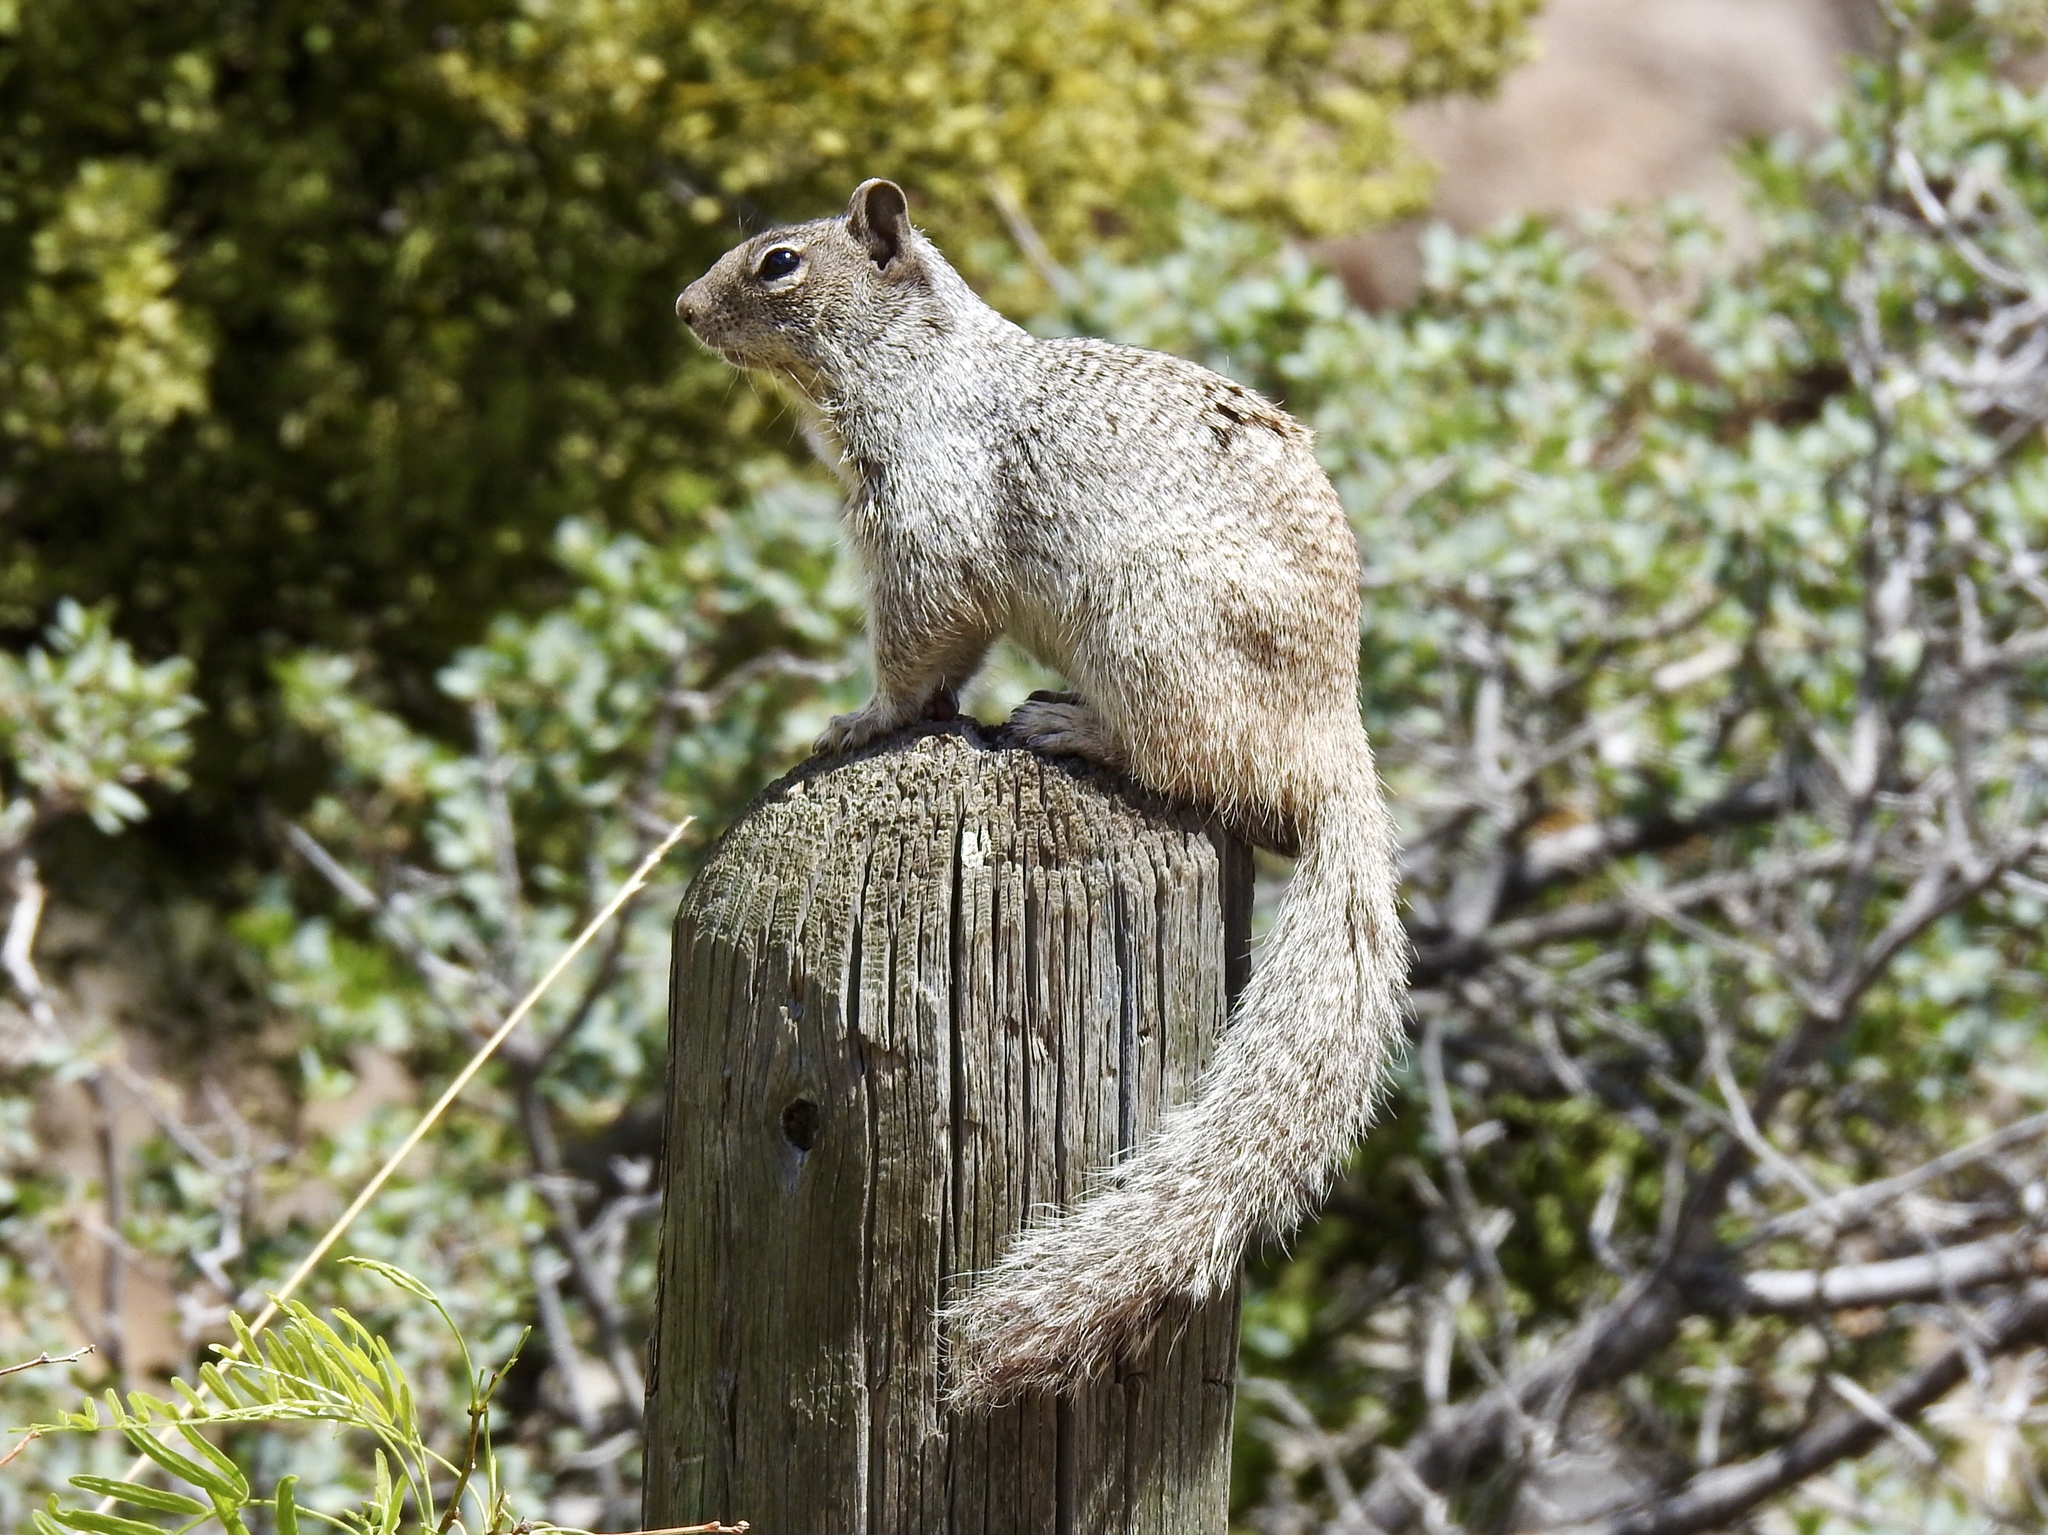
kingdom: Animalia
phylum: Chordata
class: Mammalia
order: Rodentia
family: Sciuridae
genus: Otospermophilus
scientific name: Otospermophilus variegatus
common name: Rock squirrel
